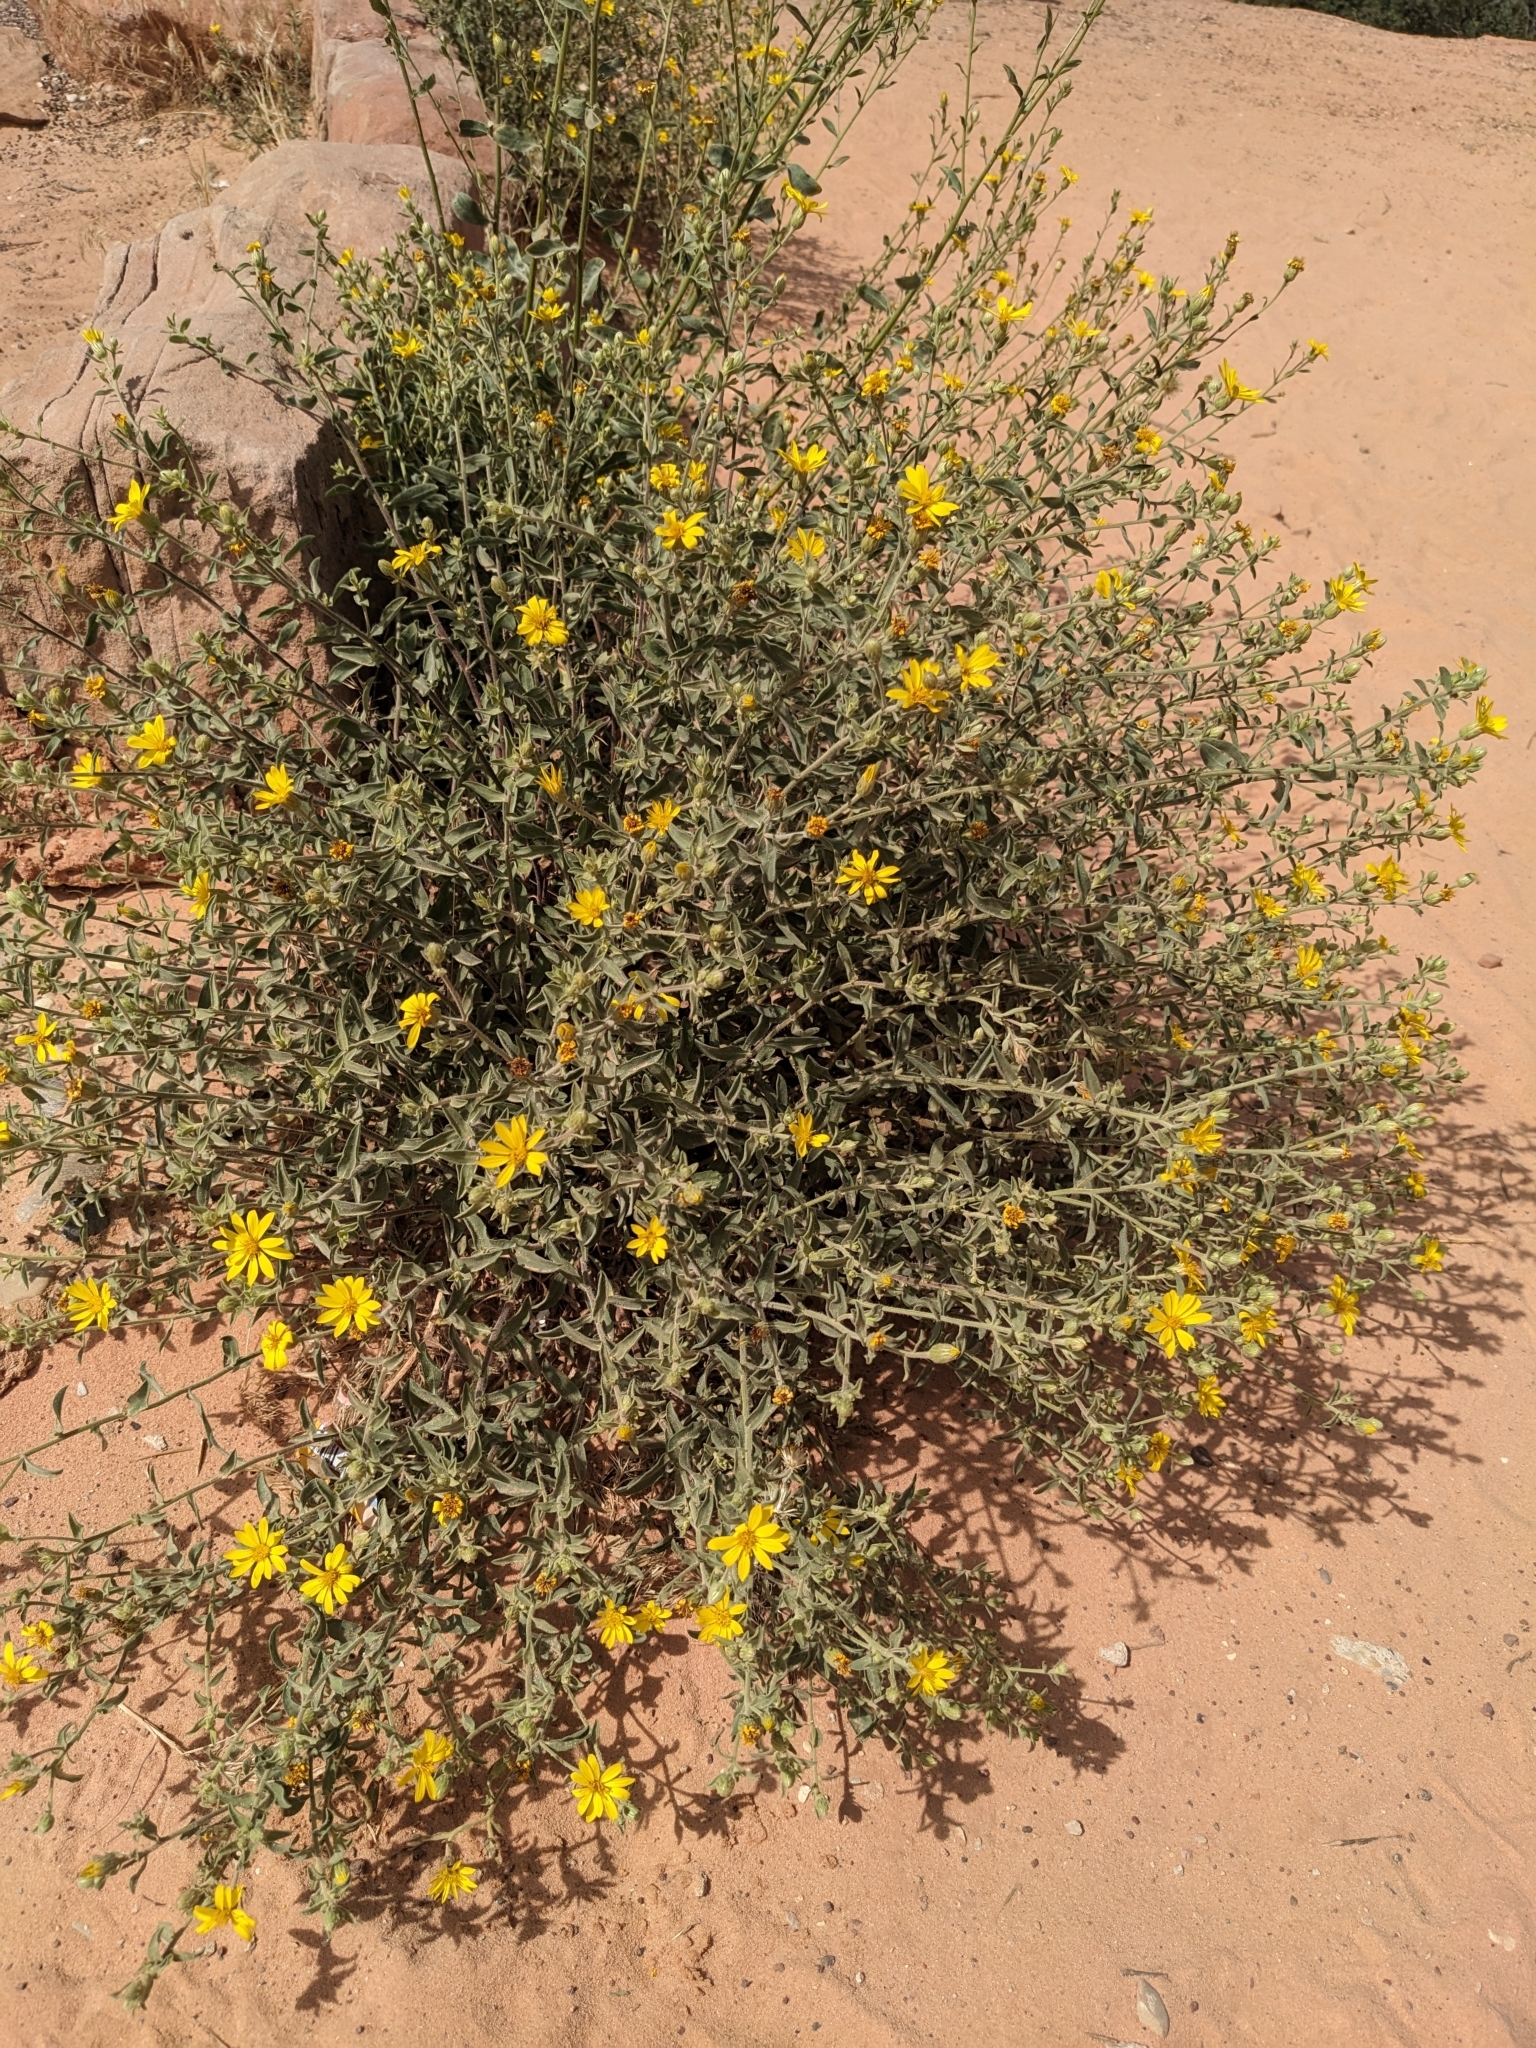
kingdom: Plantae
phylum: Tracheophyta
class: Magnoliopsida
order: Asterales
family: Asteraceae
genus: Heterotheca
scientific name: Heterotheca zionensis
